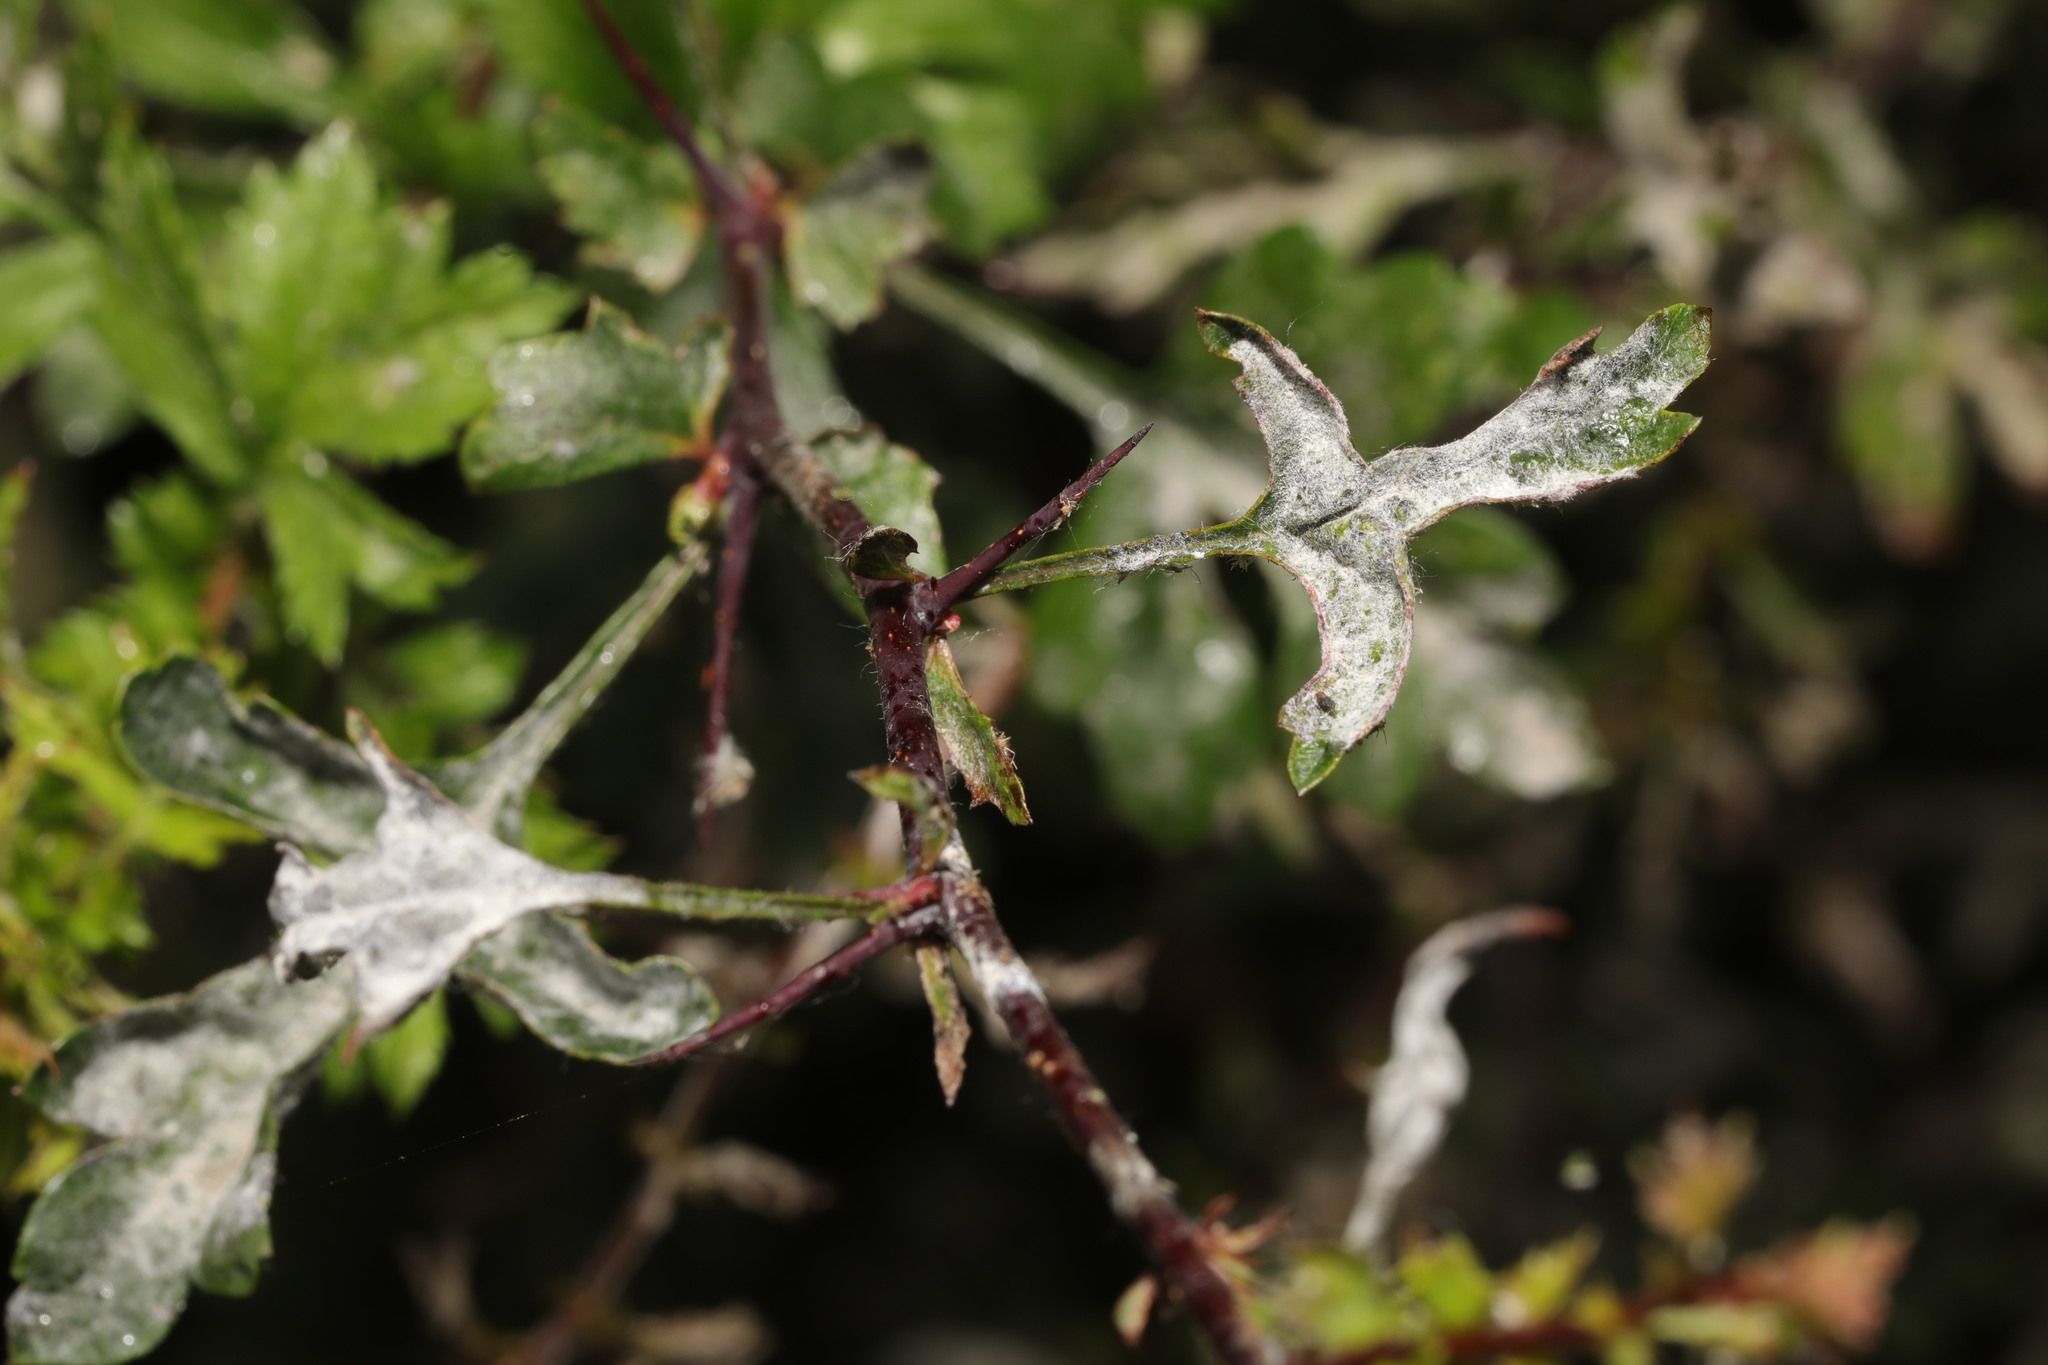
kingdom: Fungi
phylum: Ascomycota
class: Leotiomycetes
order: Helotiales
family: Erysiphaceae
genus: Podosphaera
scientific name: Podosphaera clandestina
